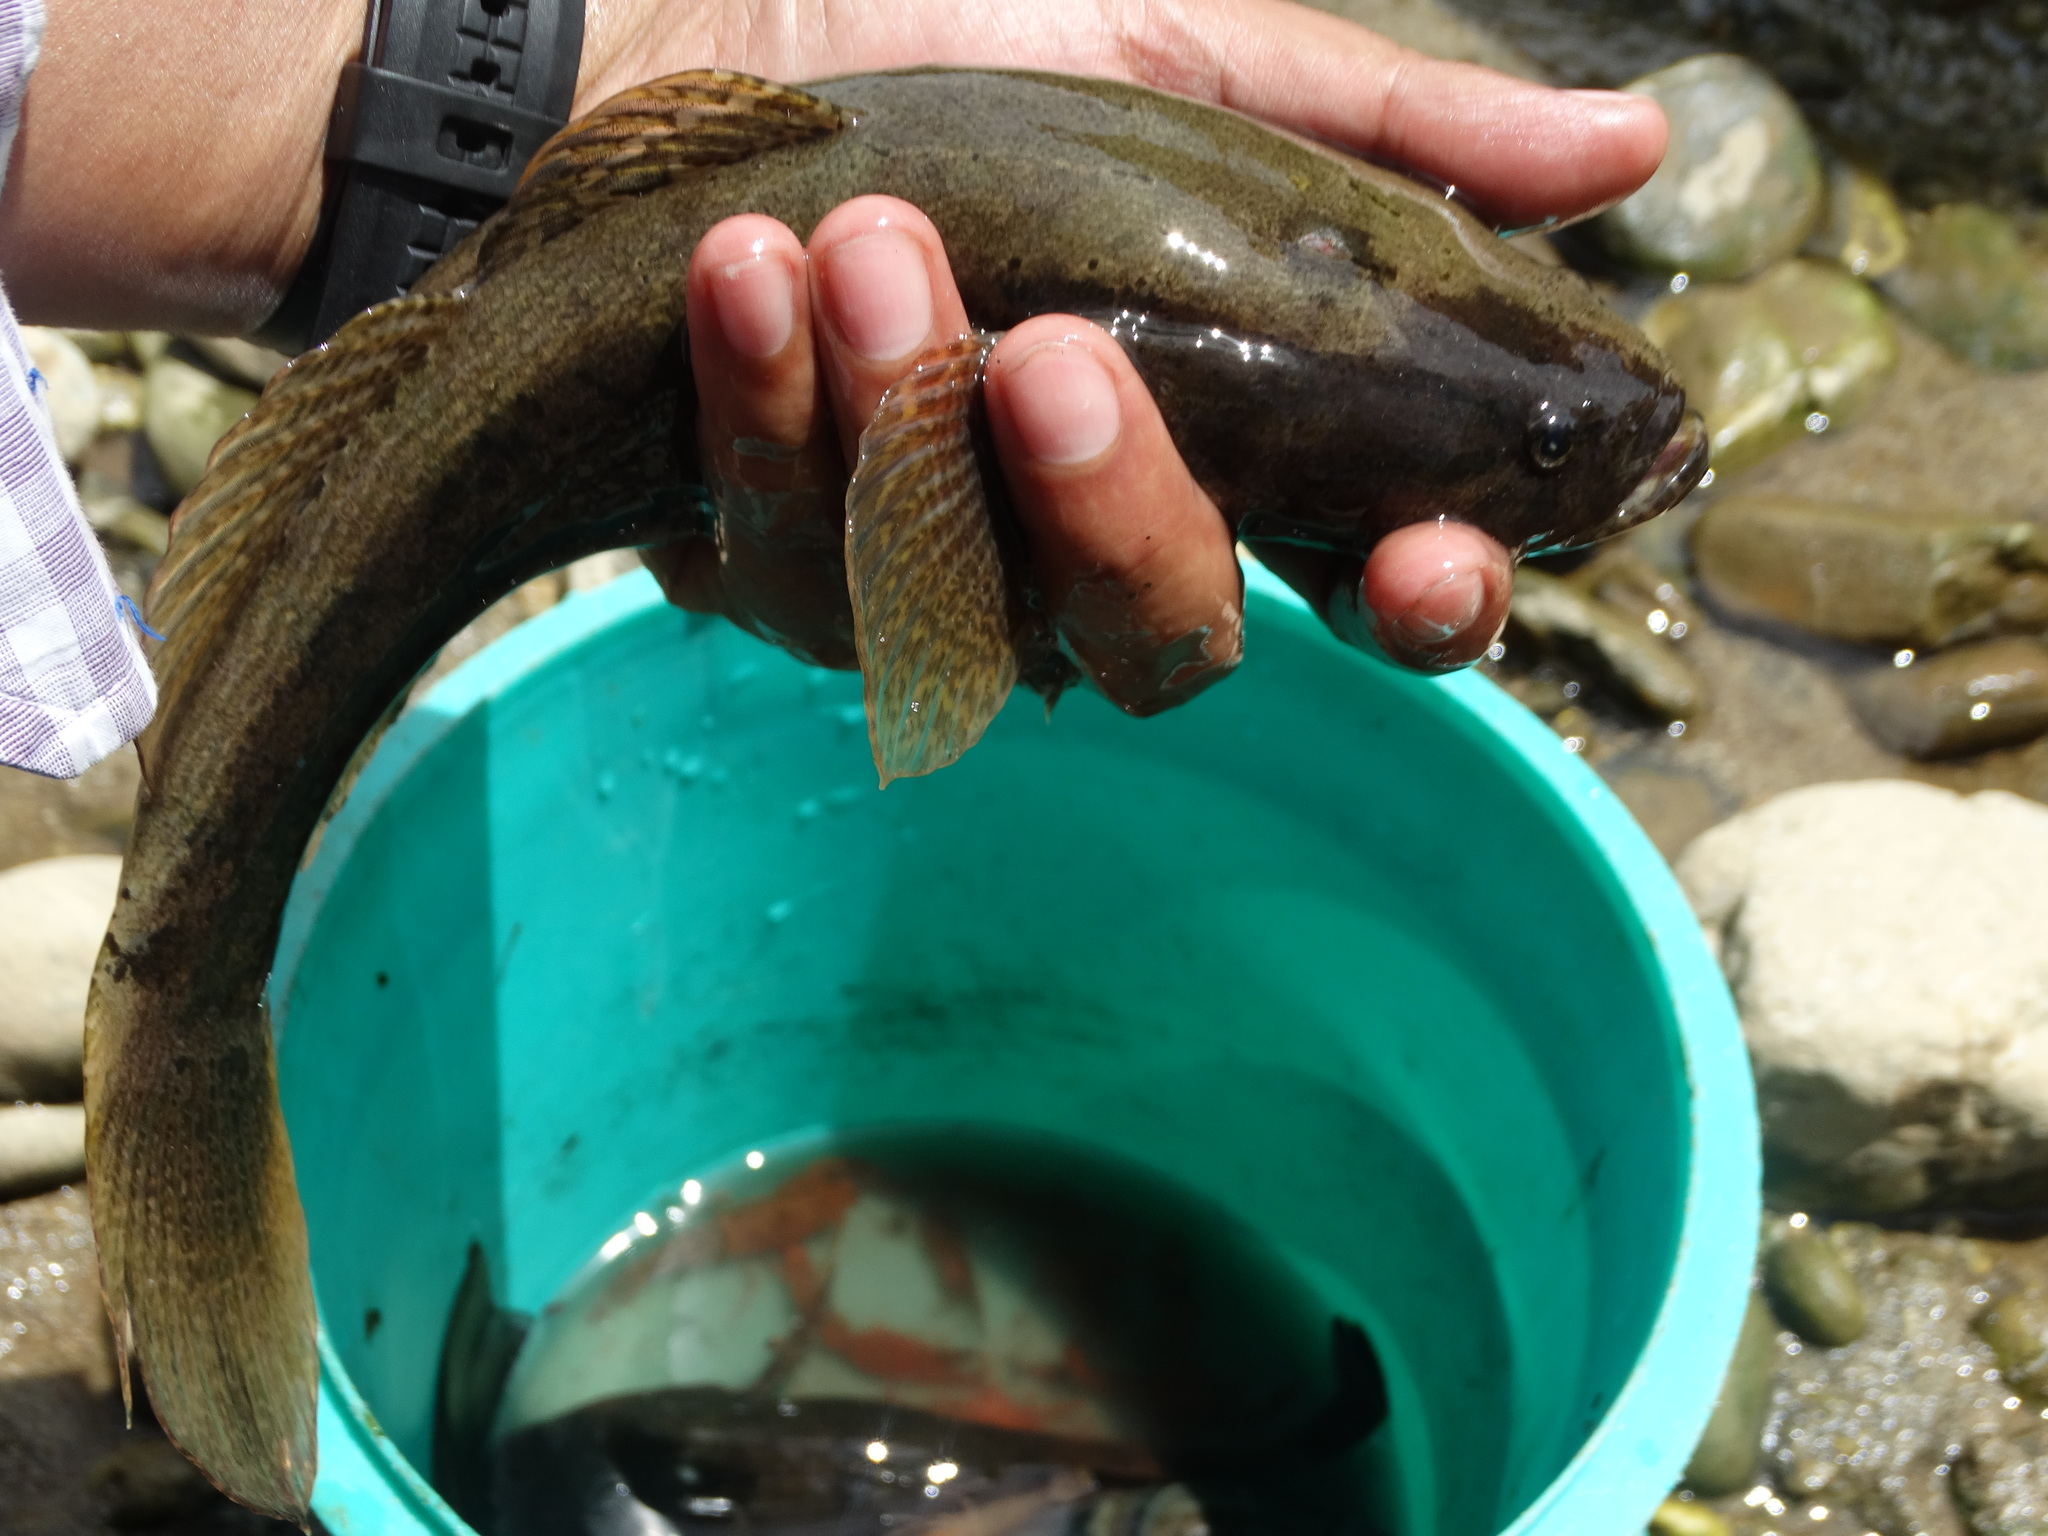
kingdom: Animalia
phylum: Chordata
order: Perciformes
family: Eleotridae
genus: Eleotris
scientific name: Eleotris picta
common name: Spotted sleeper
